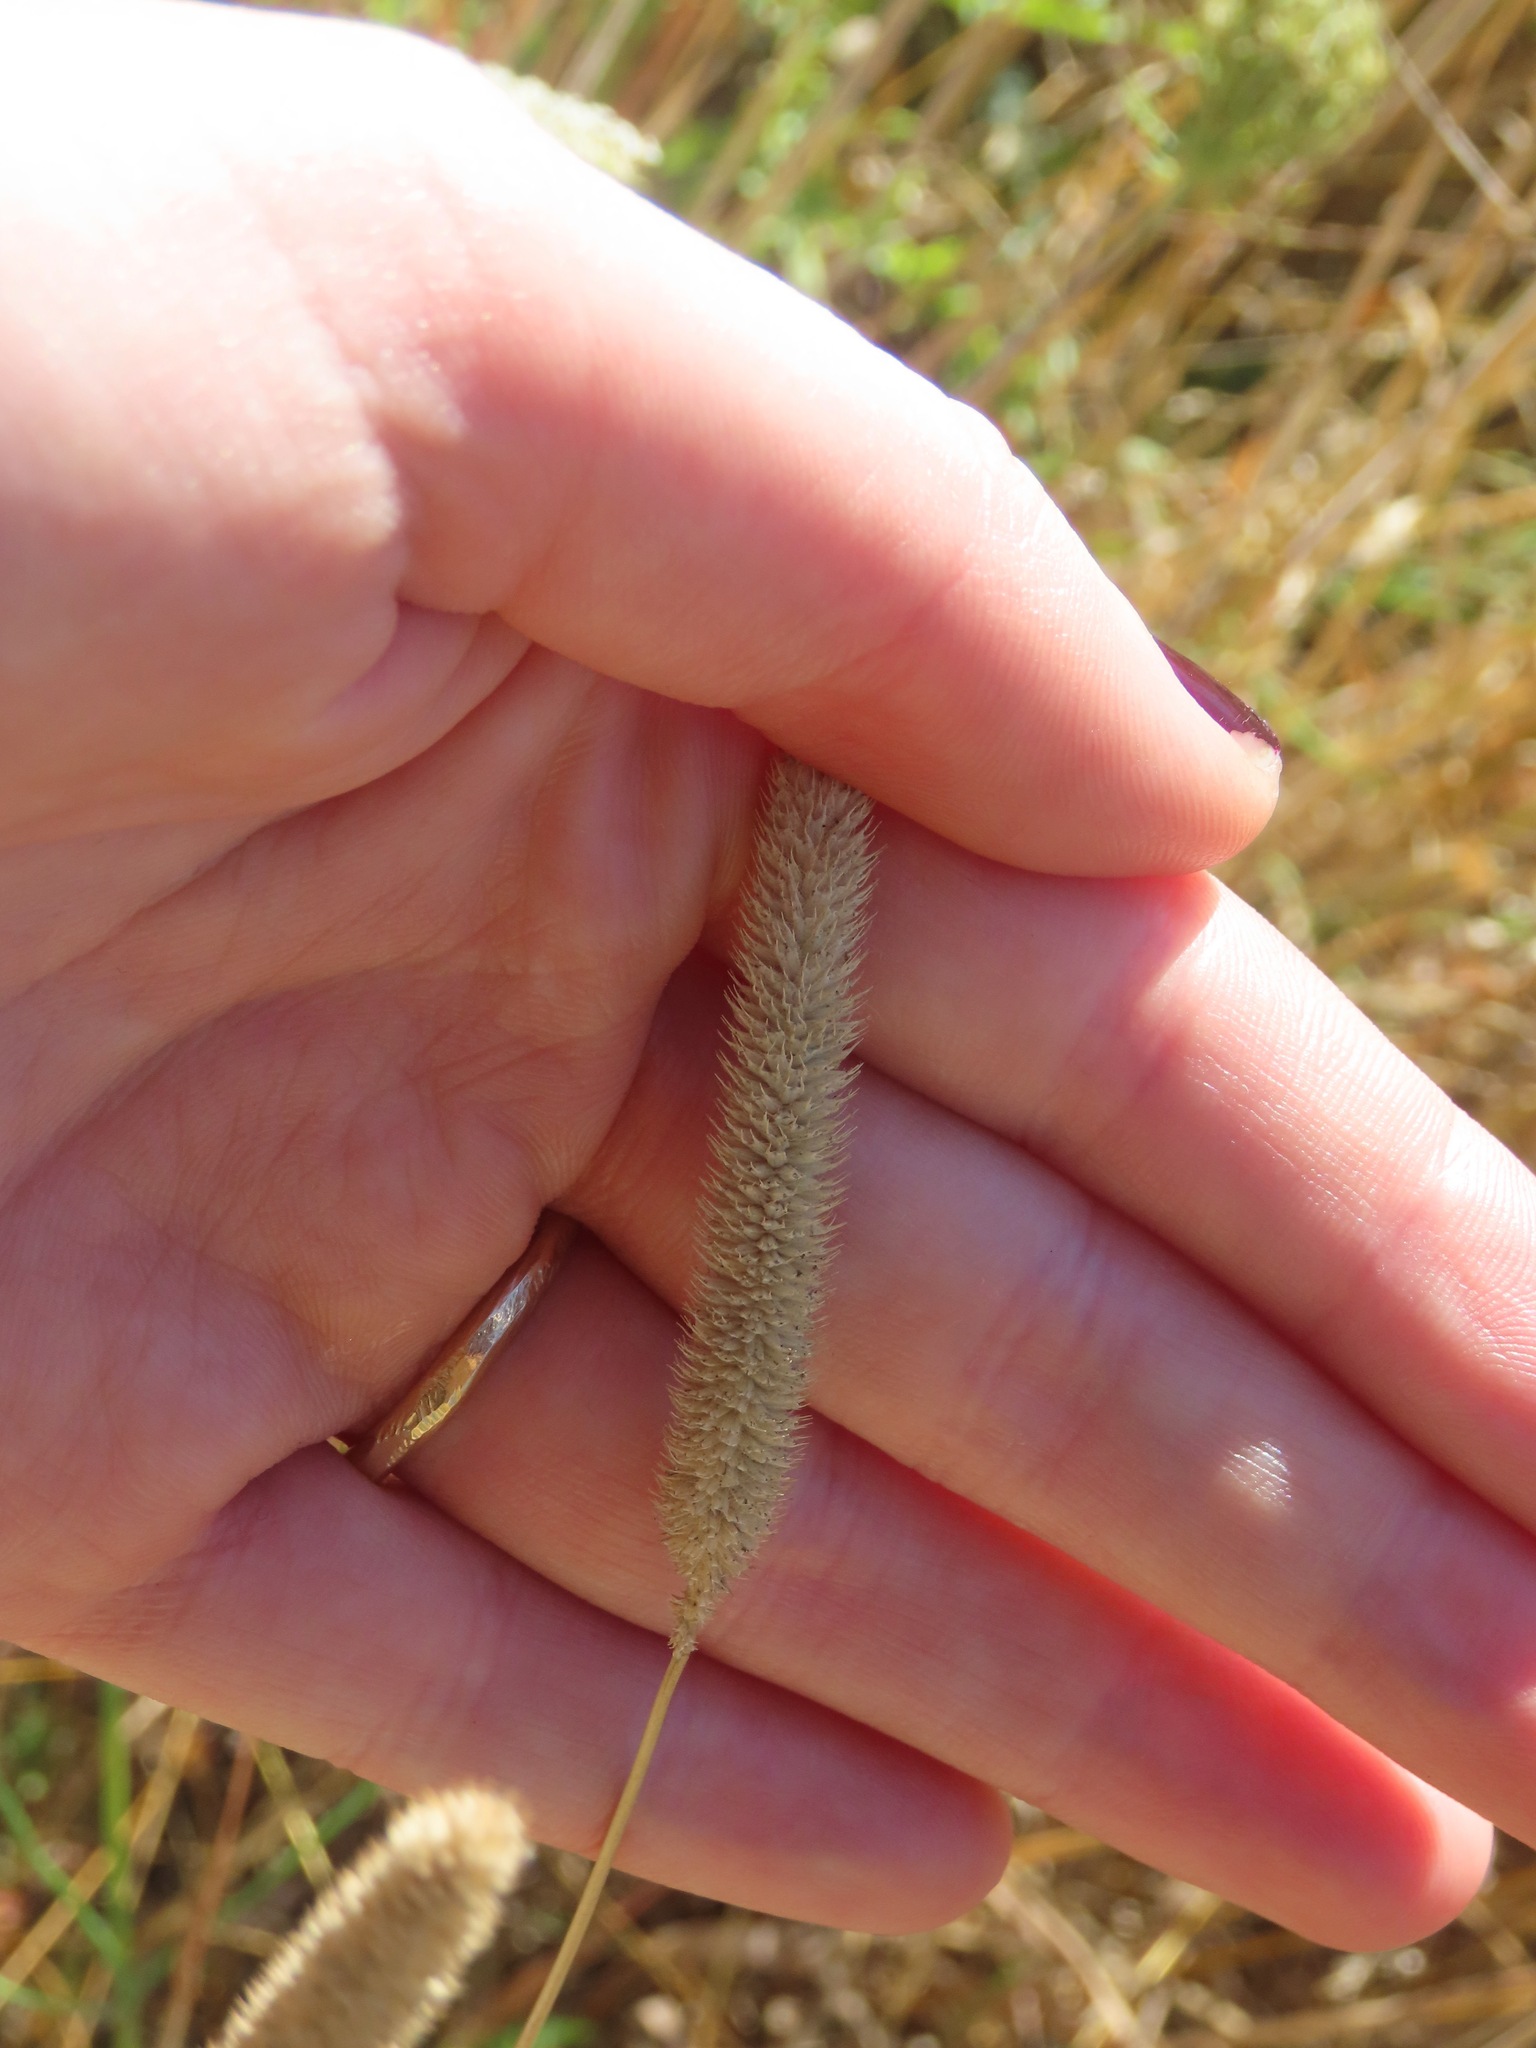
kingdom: Plantae
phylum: Tracheophyta
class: Liliopsida
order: Poales
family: Poaceae
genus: Phleum
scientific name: Phleum pratense
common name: Timothy grass
